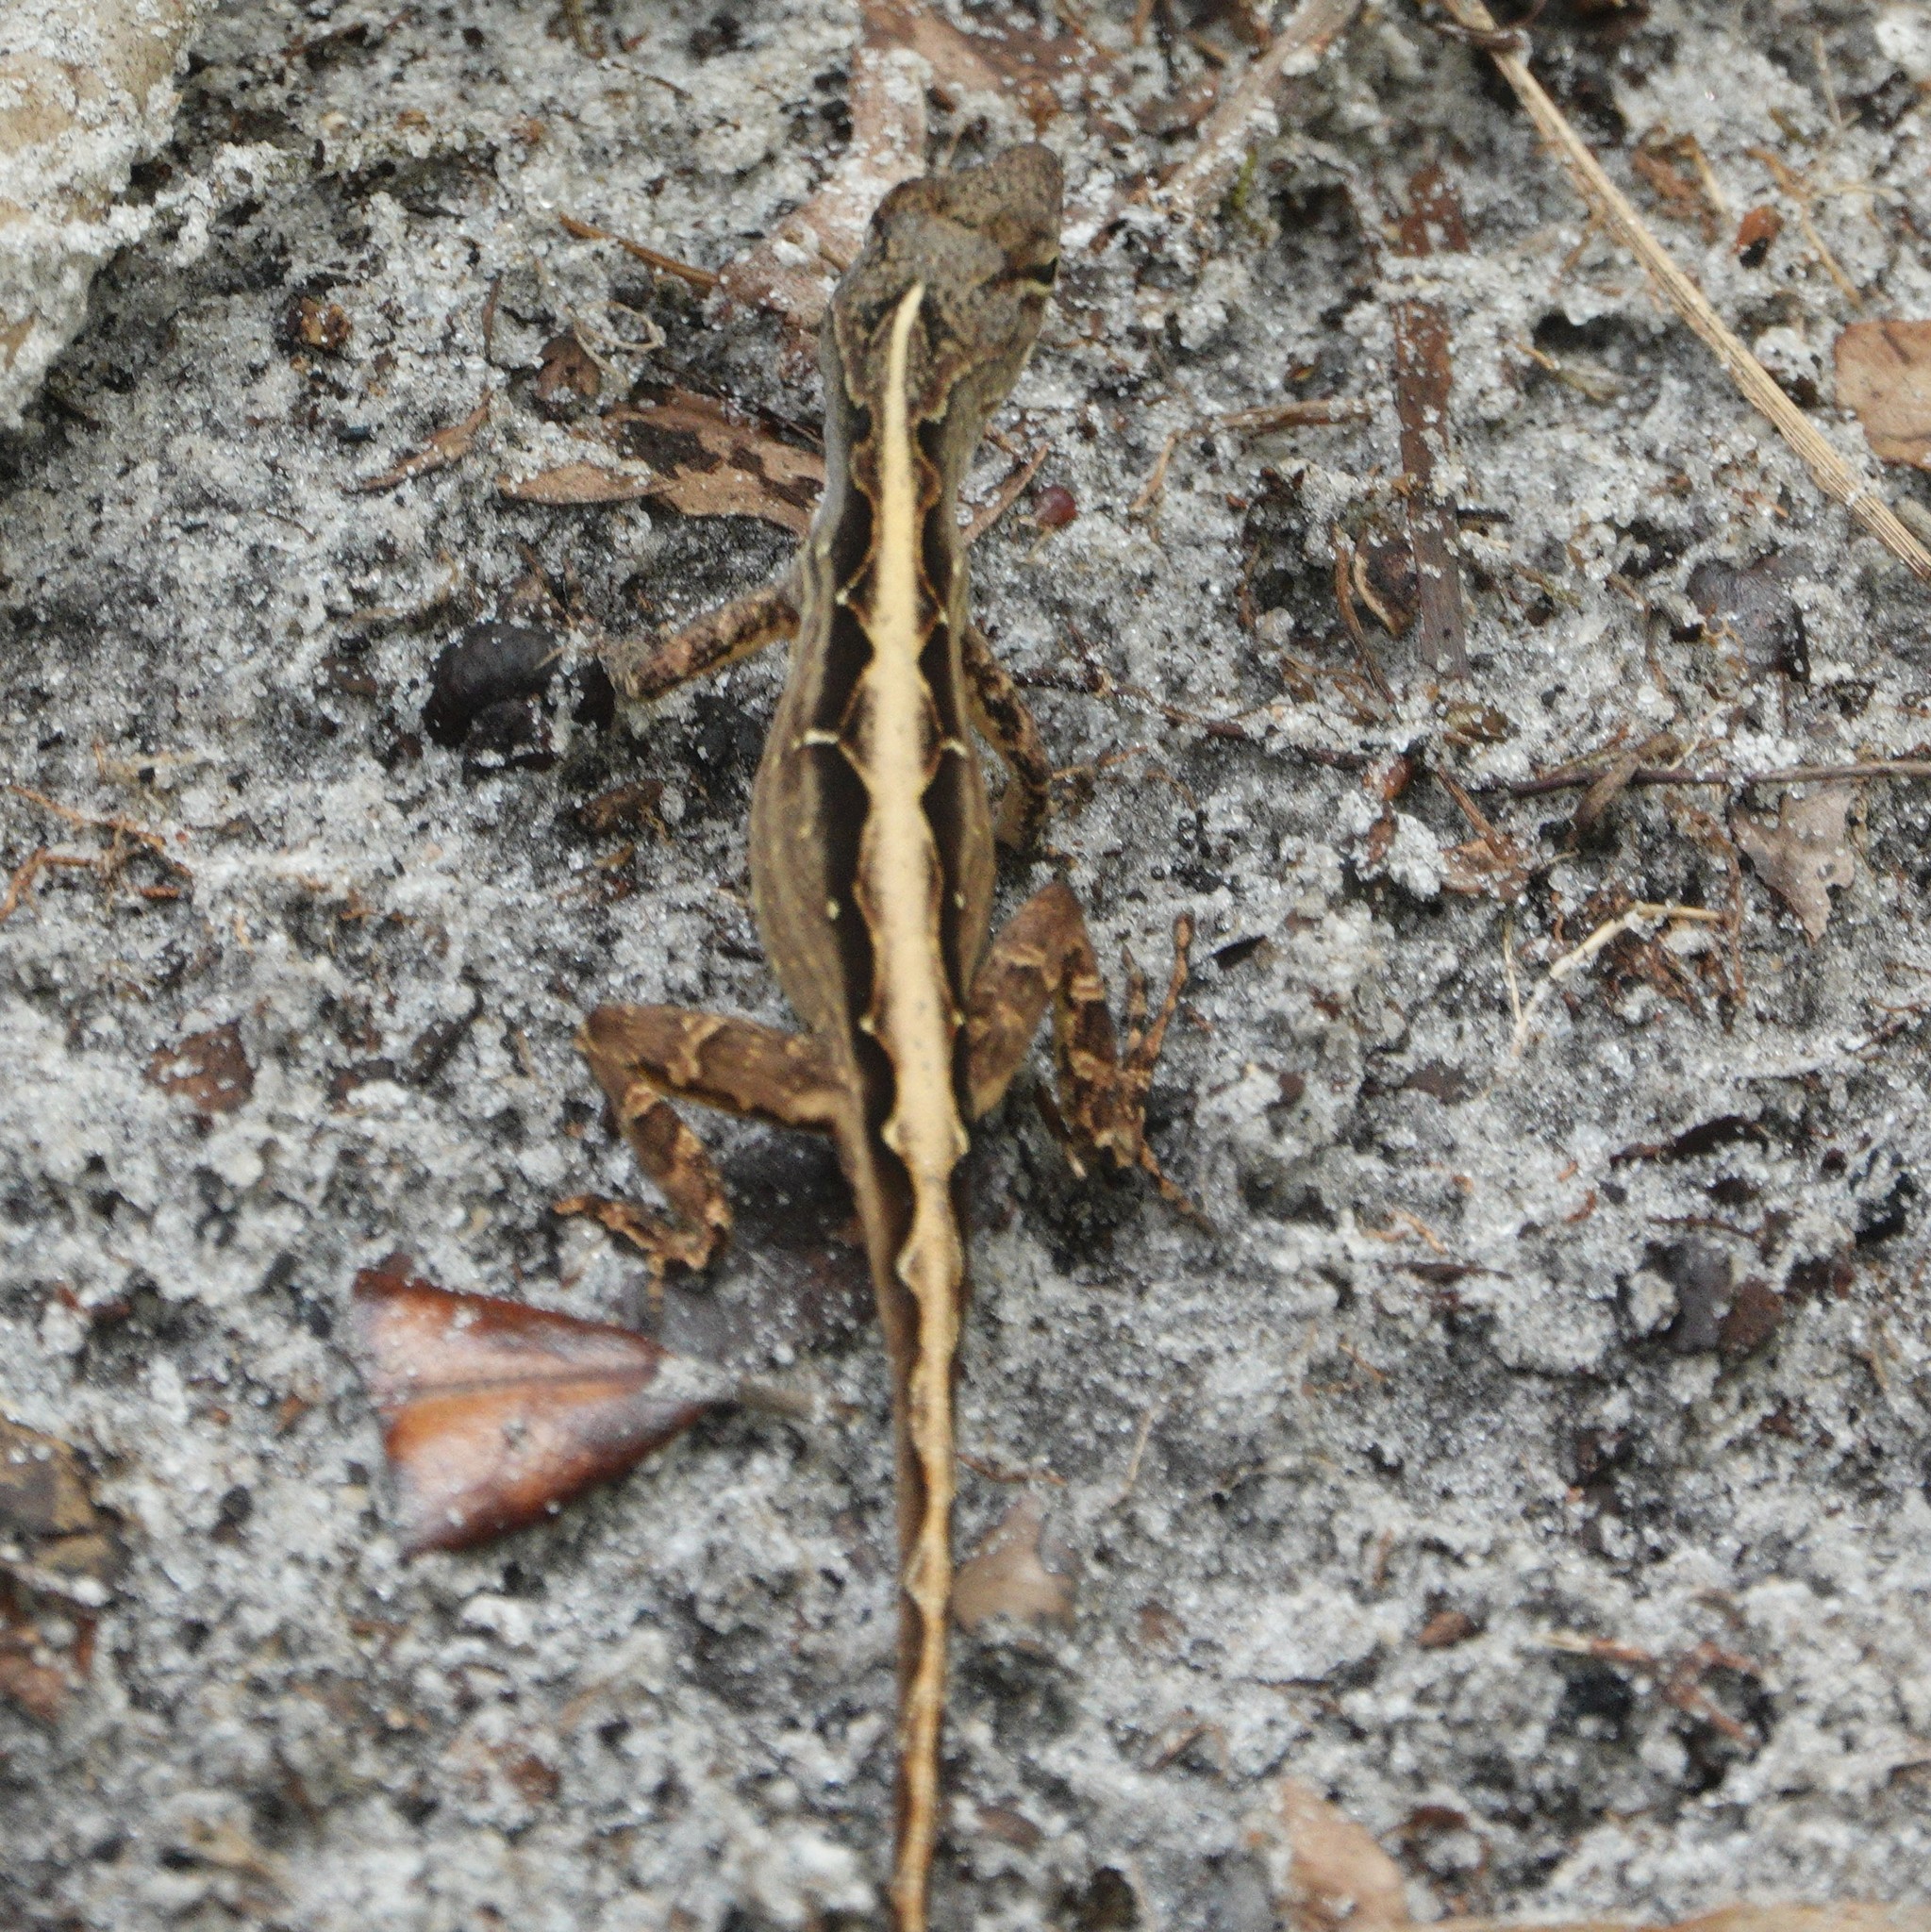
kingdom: Animalia
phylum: Chordata
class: Squamata
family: Dactyloidae
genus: Anolis
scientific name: Anolis sagrei
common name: Brown anole
